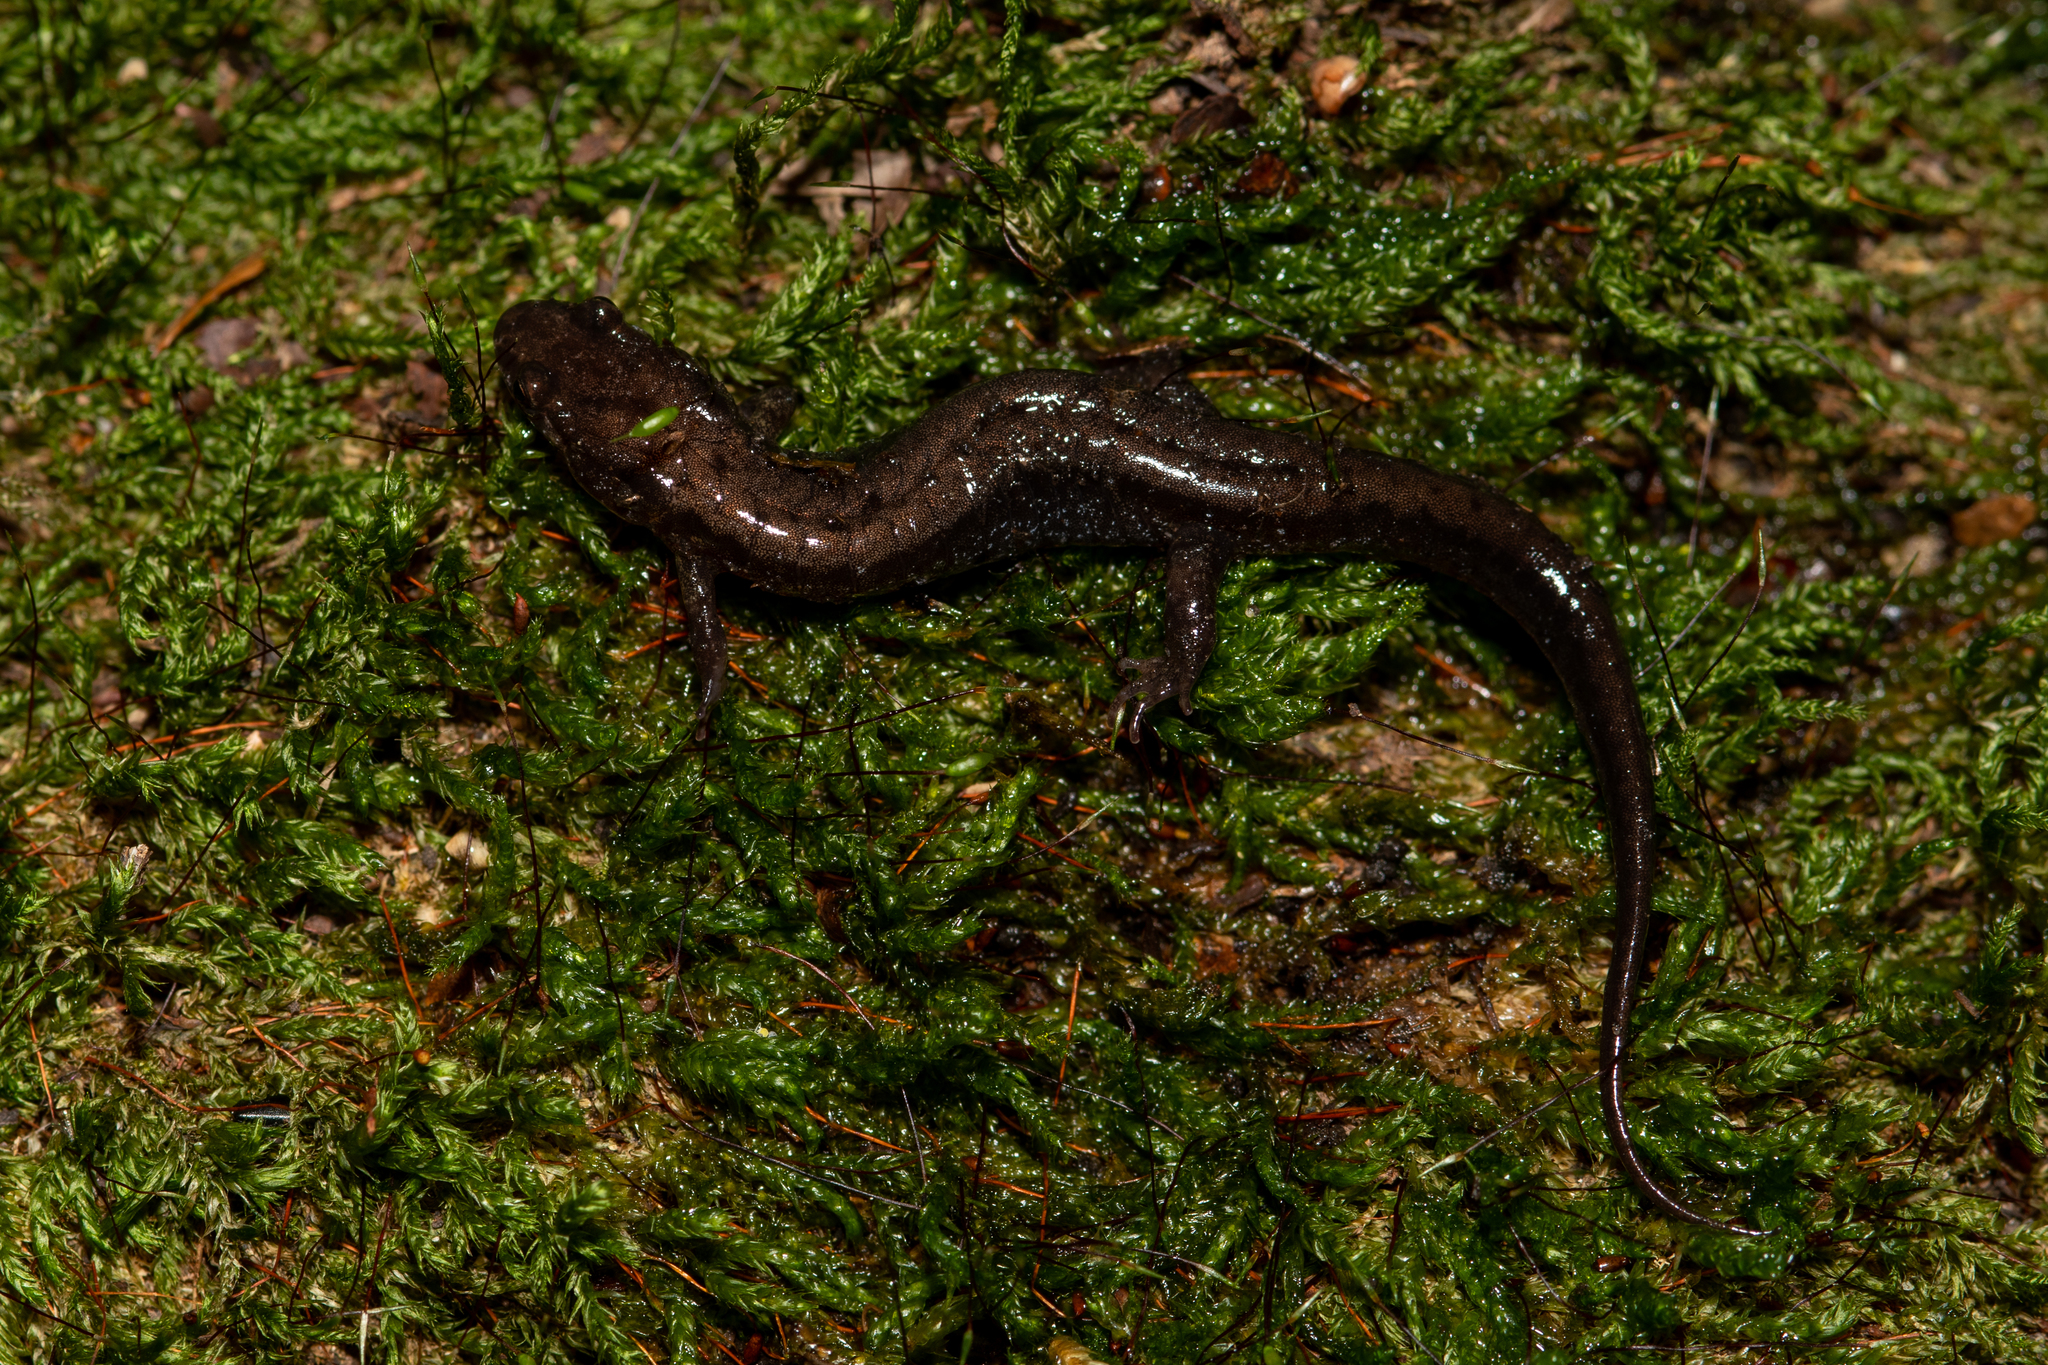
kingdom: Animalia
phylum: Chordata
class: Amphibia
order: Caudata
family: Plethodontidae
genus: Desmognathus
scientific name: Desmognathus ochrophaeus
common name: Allegheny mountain dusky salamander
